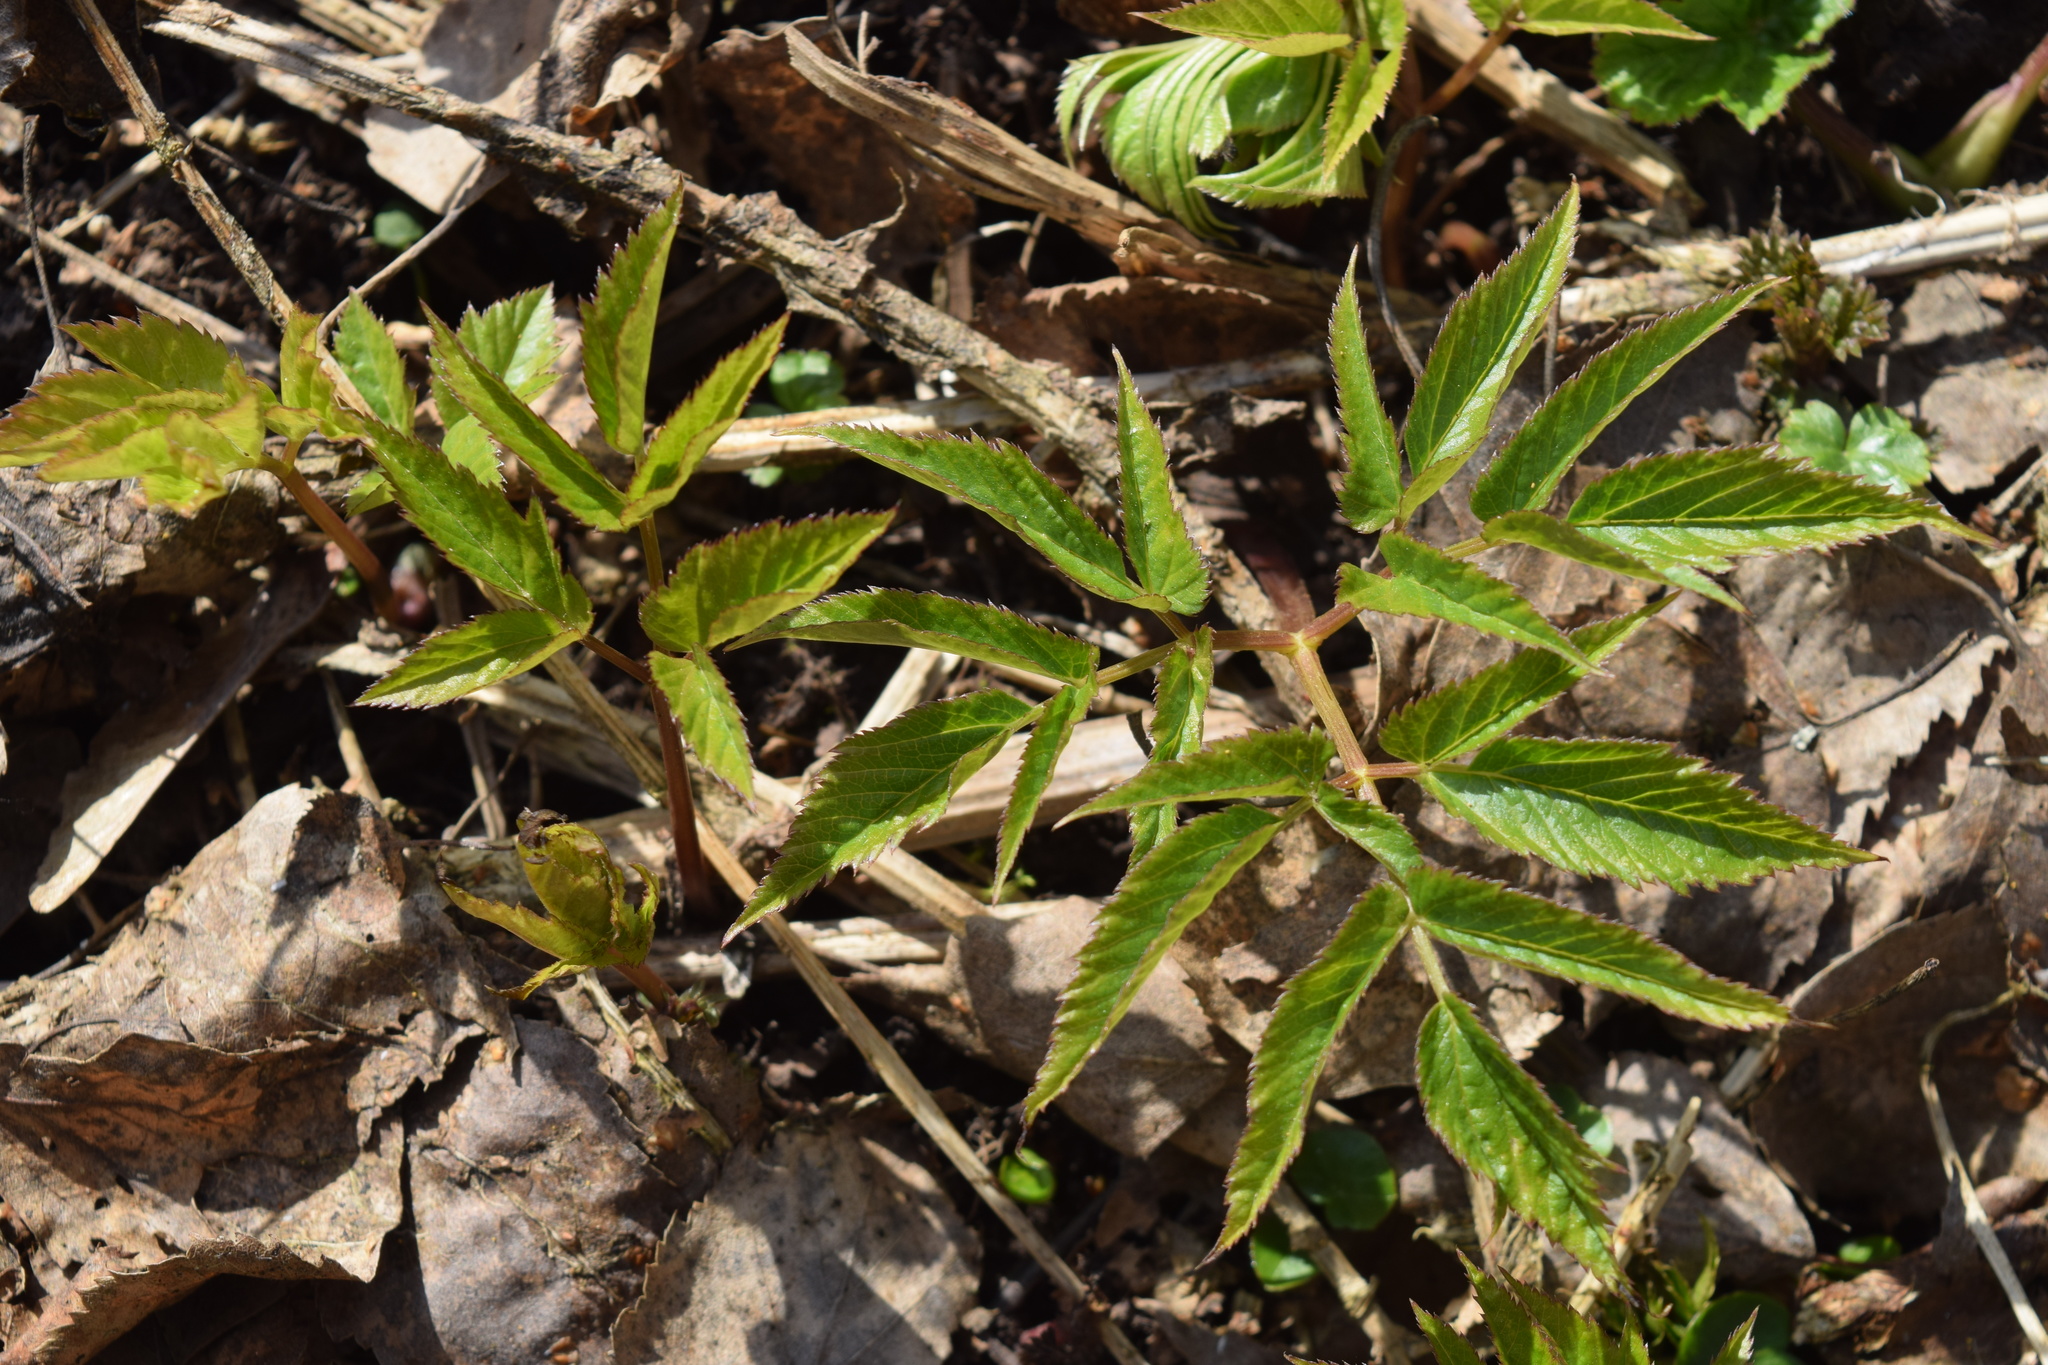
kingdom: Plantae
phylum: Tracheophyta
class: Magnoliopsida
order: Apiales
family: Apiaceae
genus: Aegopodium
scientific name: Aegopodium podagraria
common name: Ground-elder
